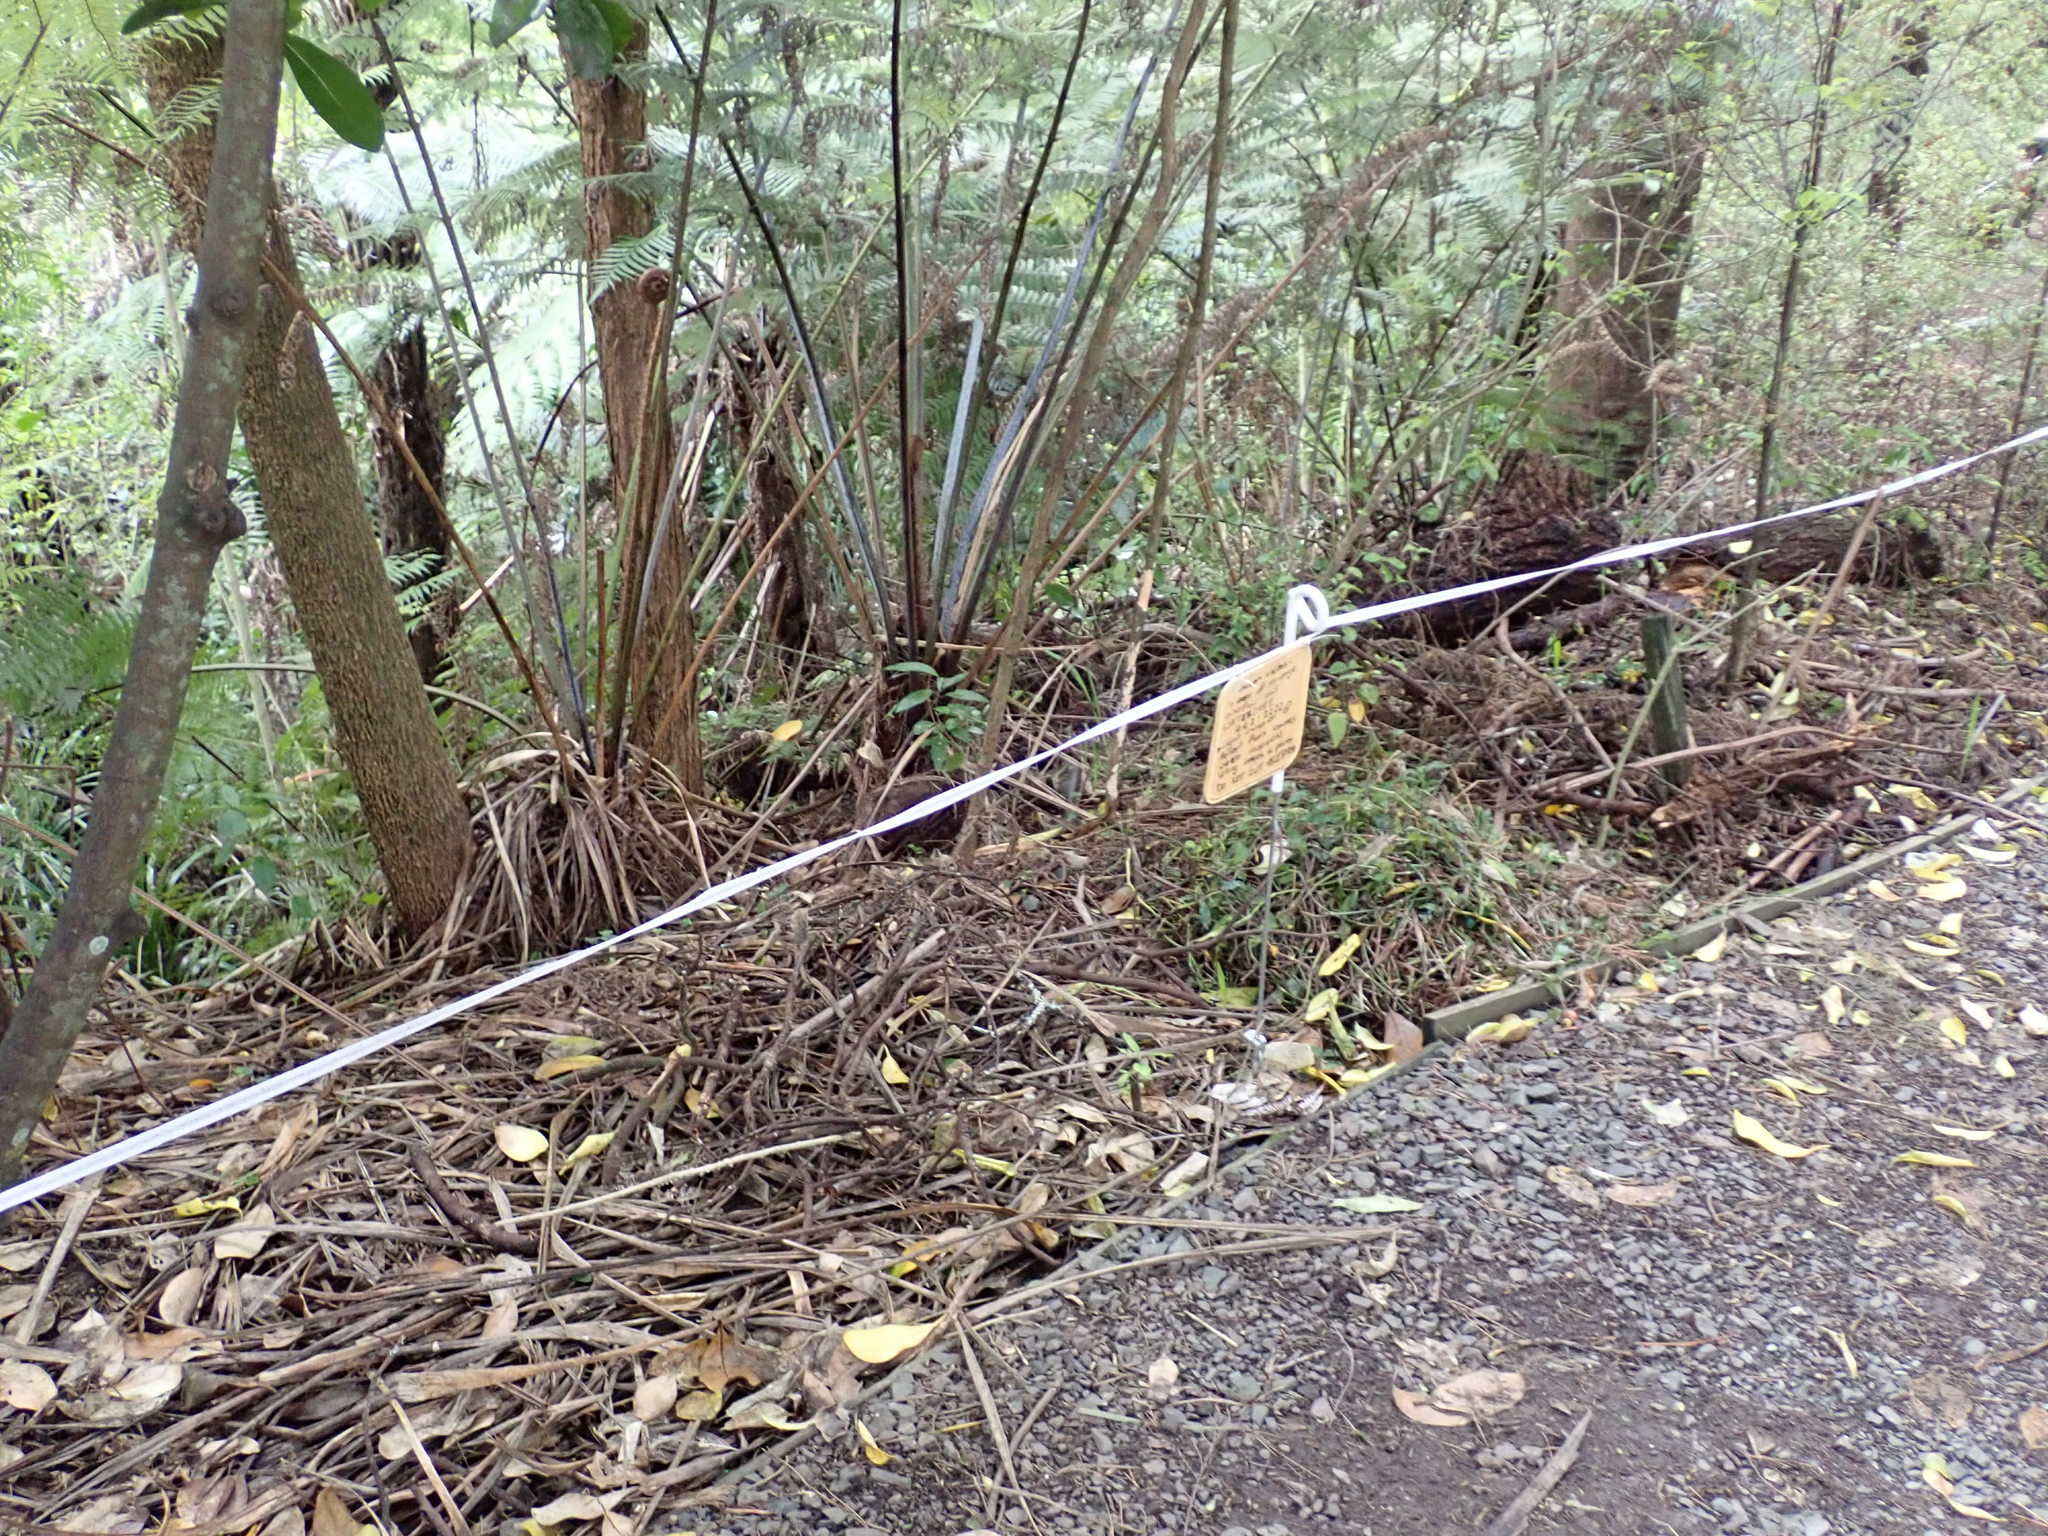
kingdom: Plantae
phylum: Tracheophyta
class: Liliopsida
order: Commelinales
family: Commelinaceae
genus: Tradescantia
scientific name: Tradescantia fluminensis
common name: Wandering-jew
